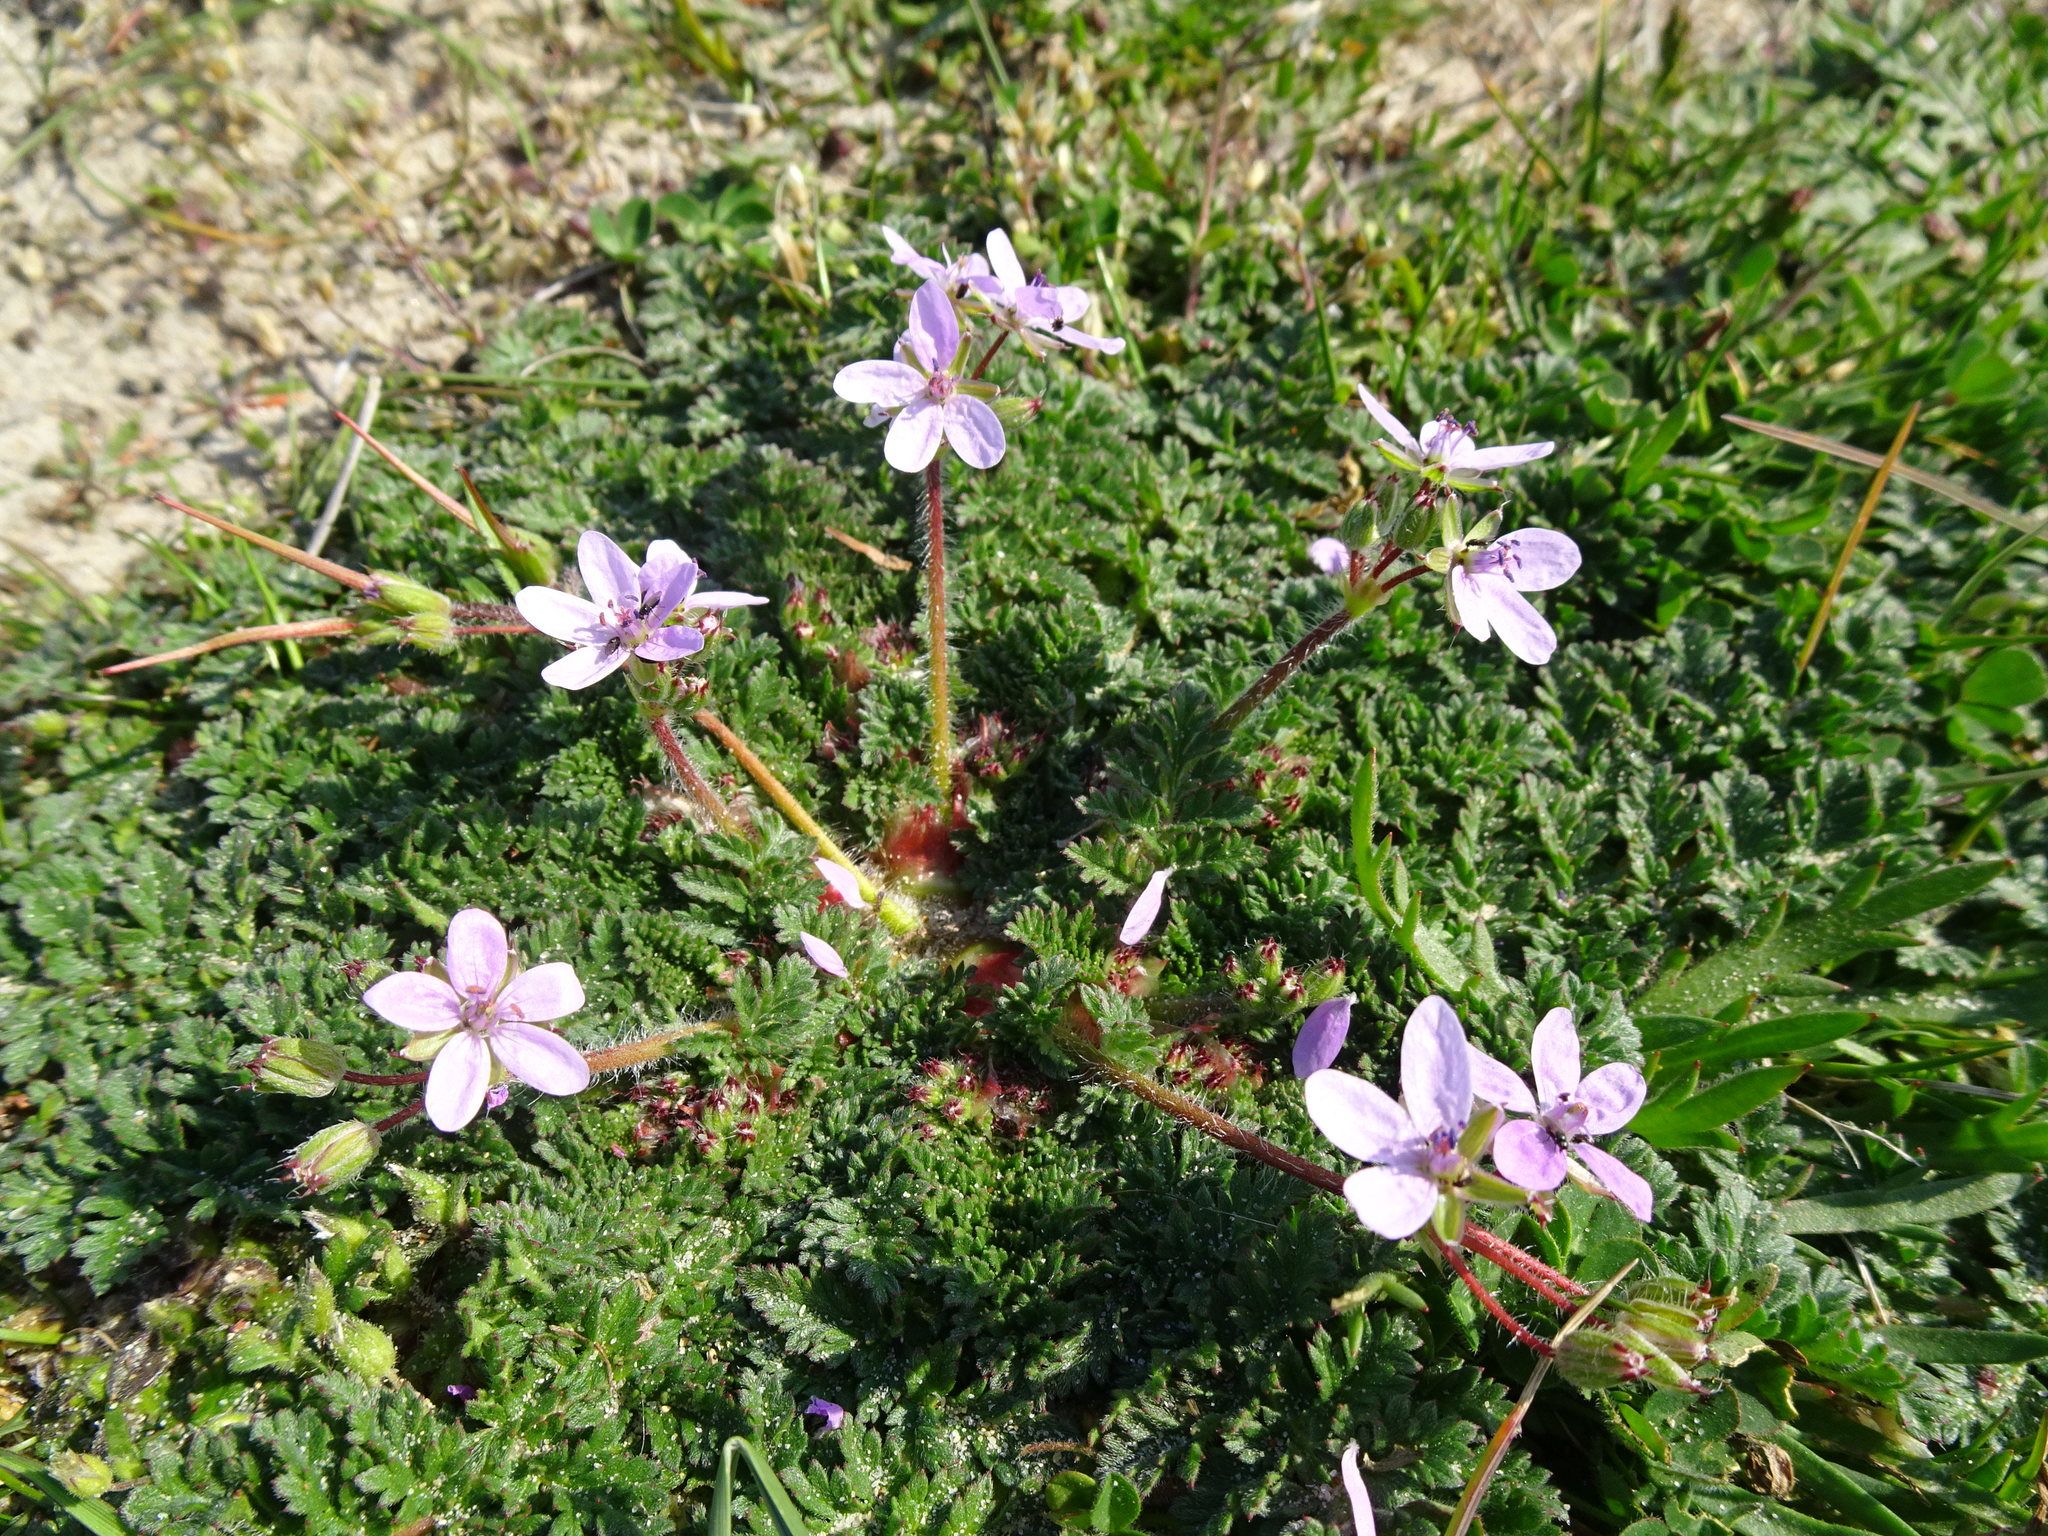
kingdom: Plantae
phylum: Tracheophyta
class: Magnoliopsida
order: Geraniales
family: Geraniaceae
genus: Erodium
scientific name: Erodium cicutarium
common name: Common stork's-bill
